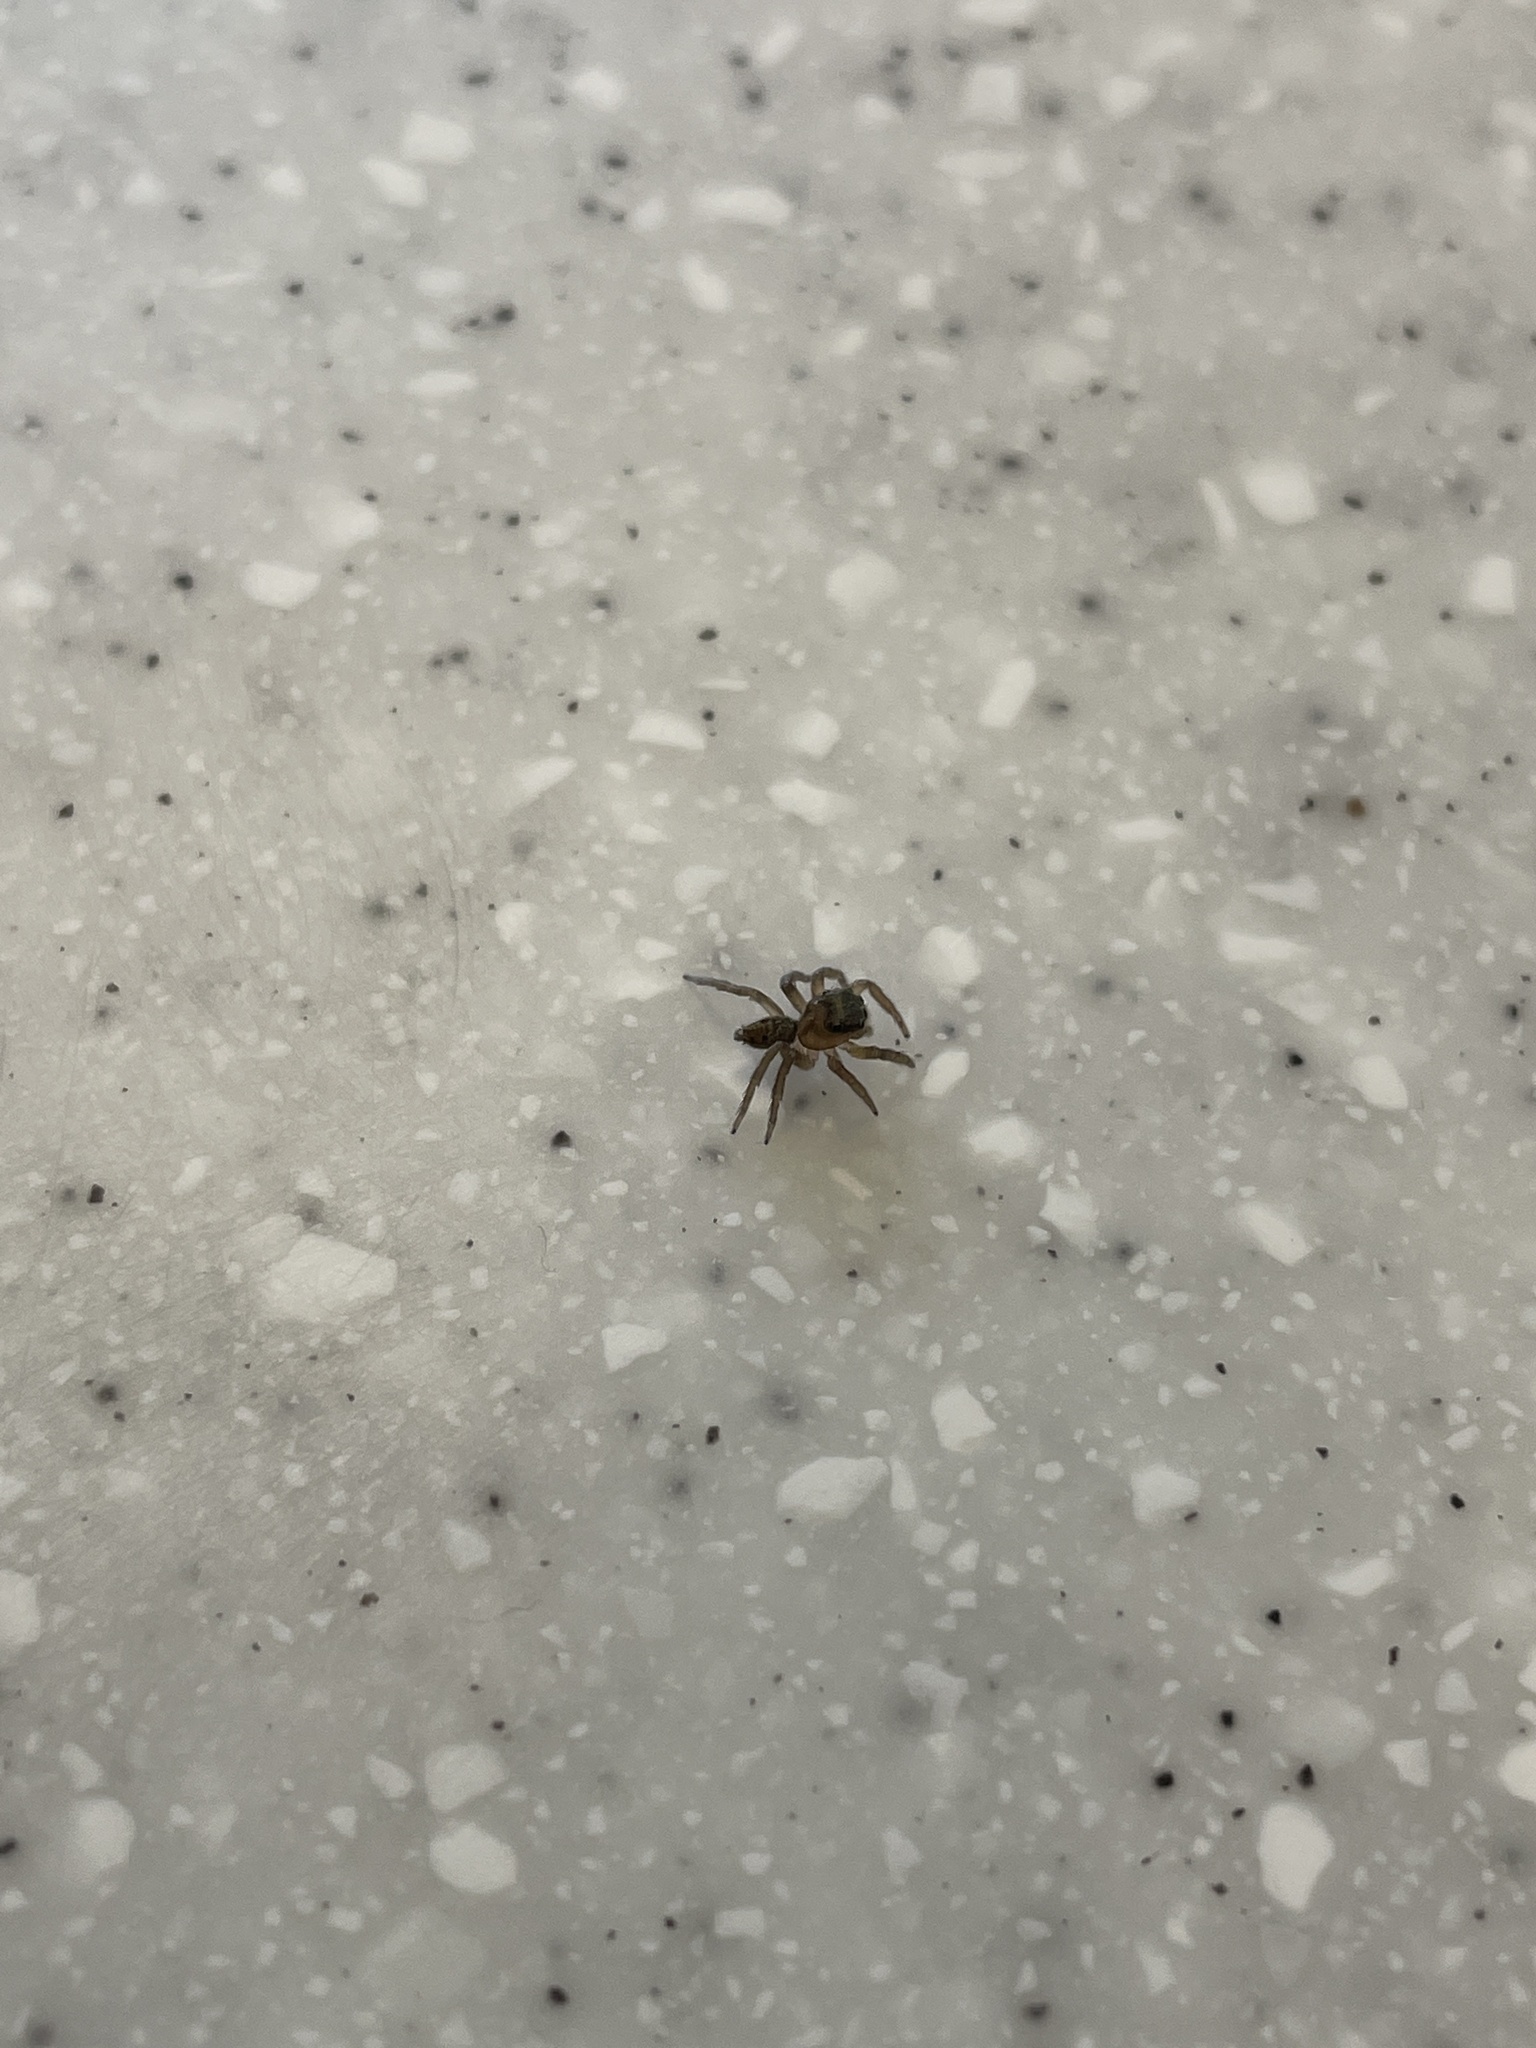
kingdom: Animalia
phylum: Arthropoda
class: Arachnida
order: Araneae
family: Salticidae
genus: Hasarius
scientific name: Hasarius adansoni
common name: Jumping spider
